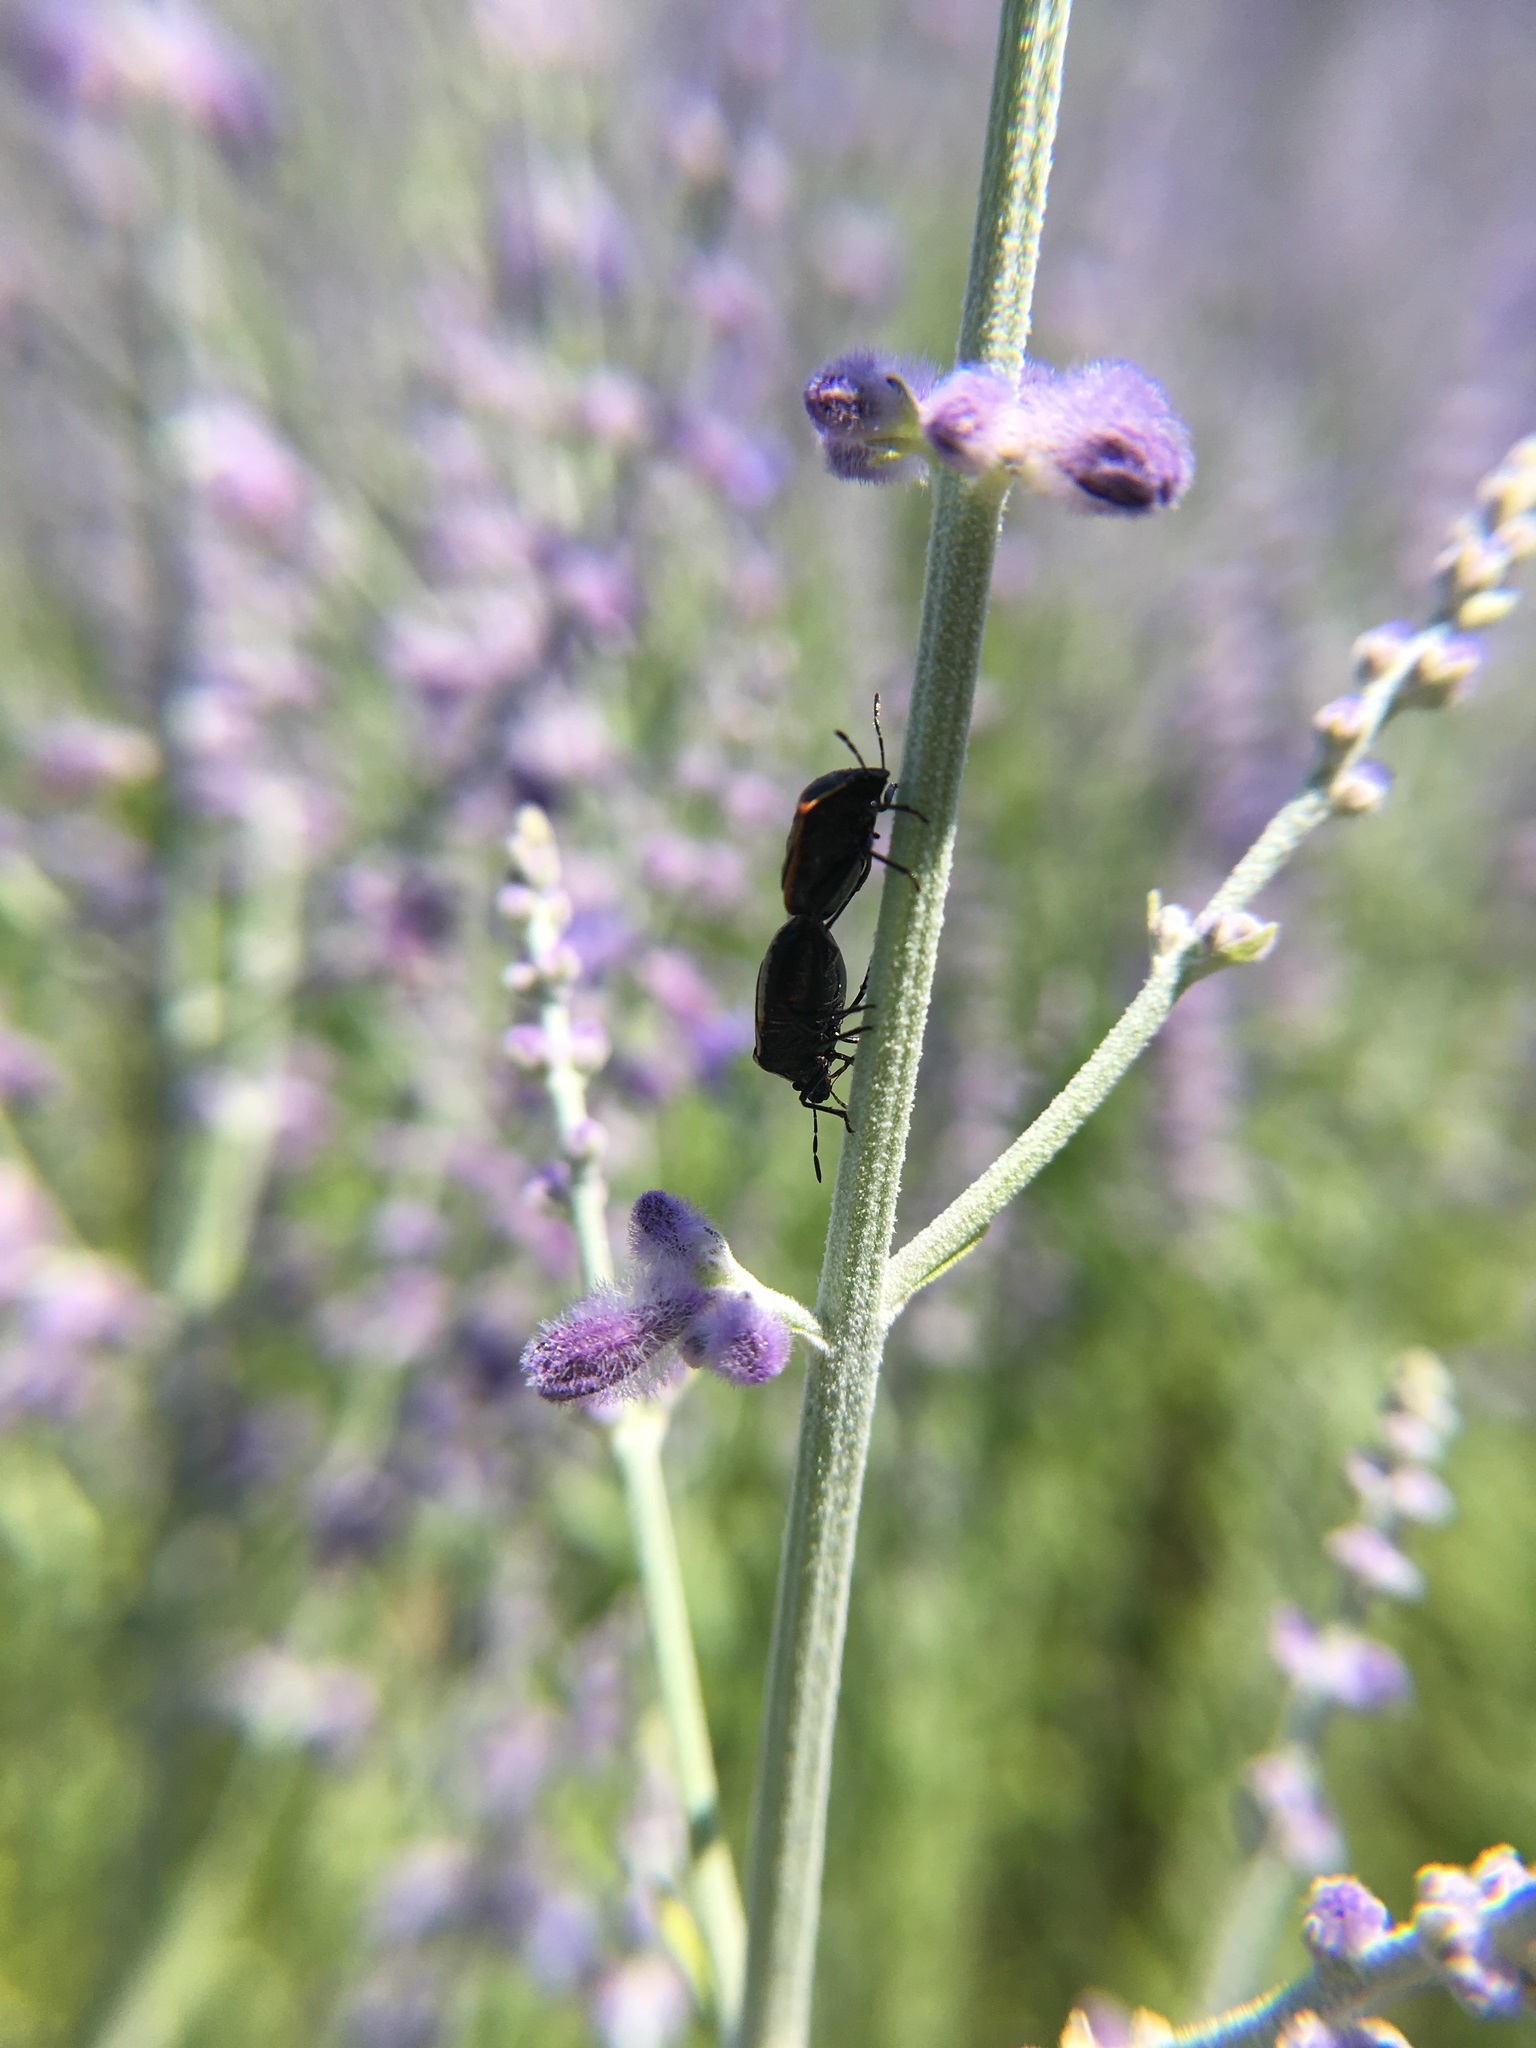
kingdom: Animalia
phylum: Arthropoda
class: Insecta
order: Hemiptera
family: Pentatomidae
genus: Cosmopepla
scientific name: Cosmopepla lintneriana
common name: Twice-stabbed stink bug
